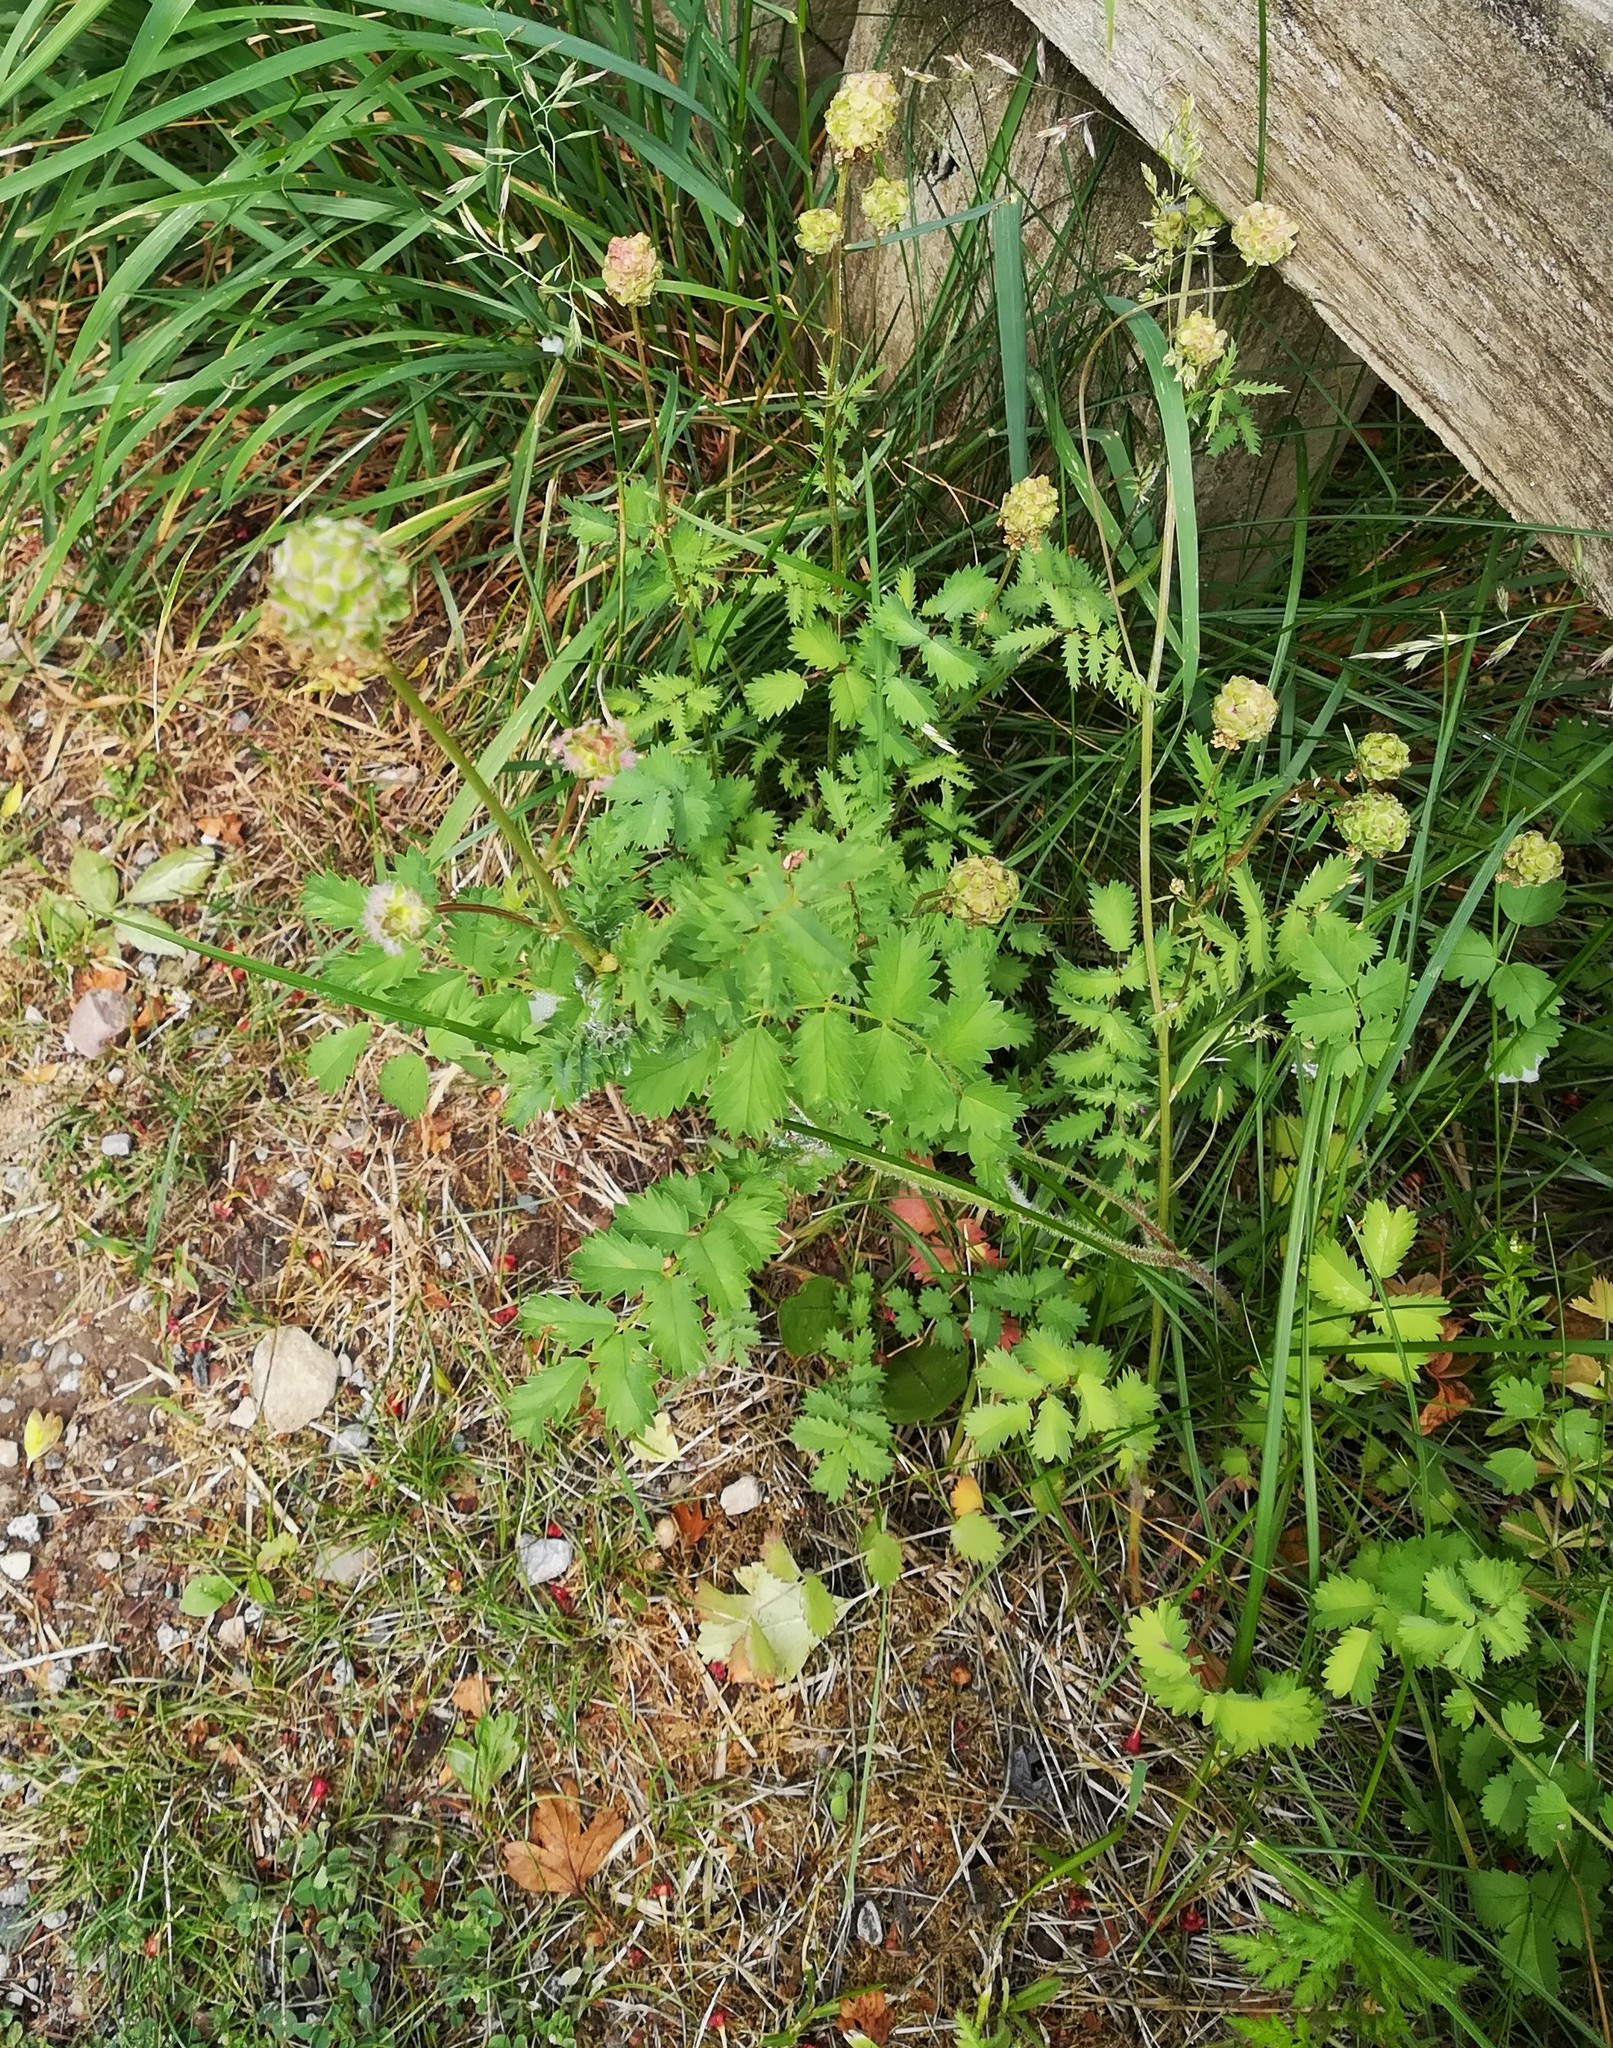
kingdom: Plantae
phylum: Tracheophyta
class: Magnoliopsida
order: Rosales
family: Rosaceae
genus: Poterium
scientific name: Poterium sanguisorba
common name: Salad burnet
